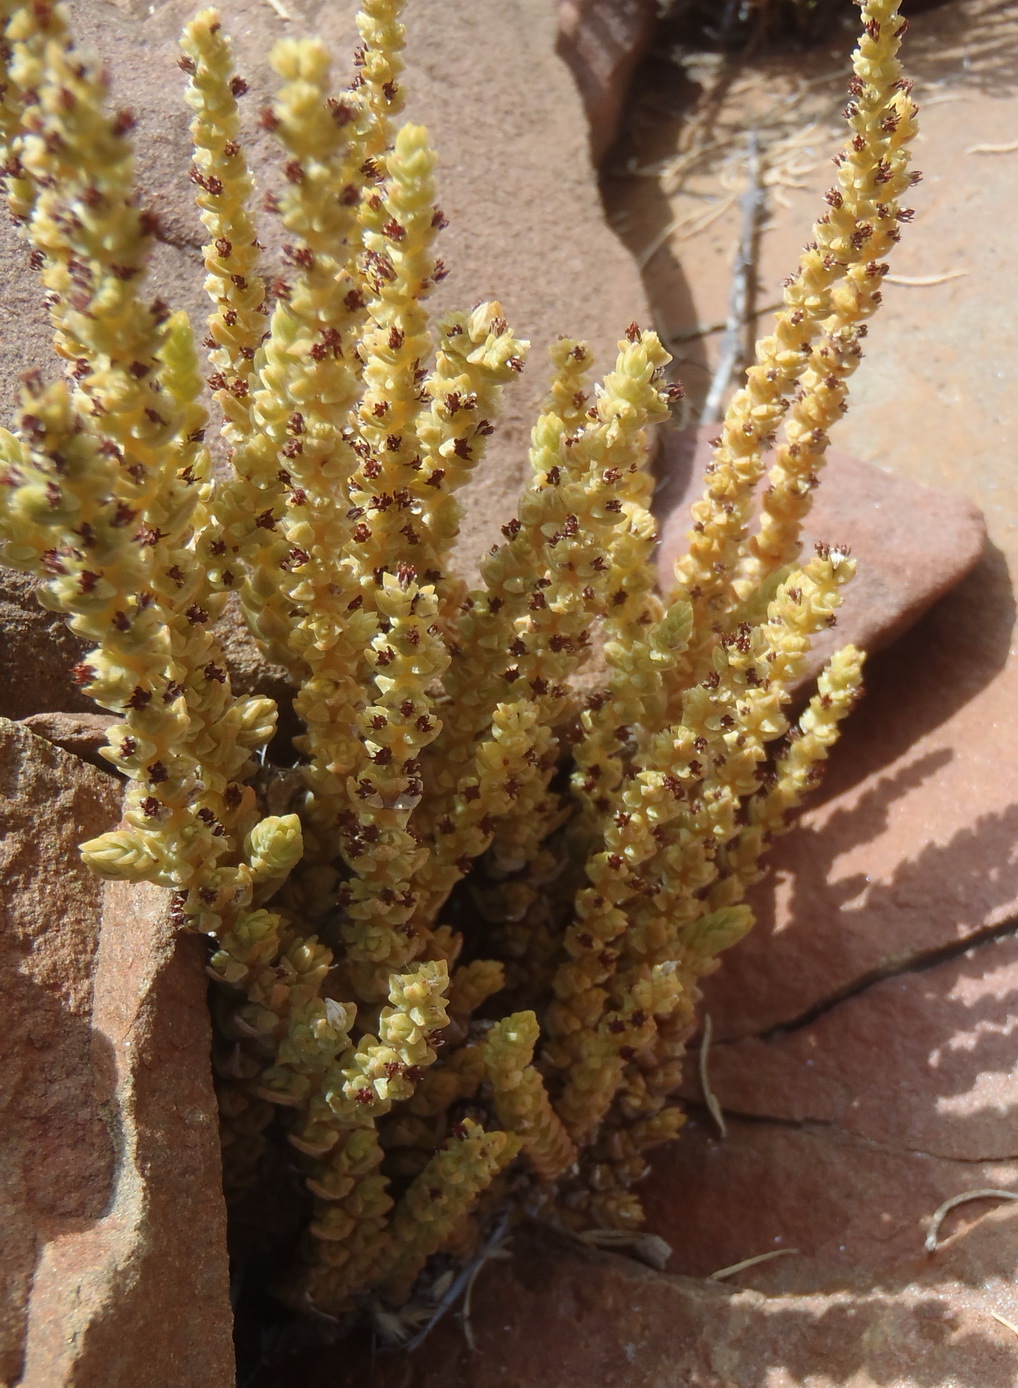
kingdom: Plantae
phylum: Tracheophyta
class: Magnoliopsida
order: Saxifragales
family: Crassulaceae
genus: Crassula
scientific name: Crassula muscosa
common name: Toy-cypress
